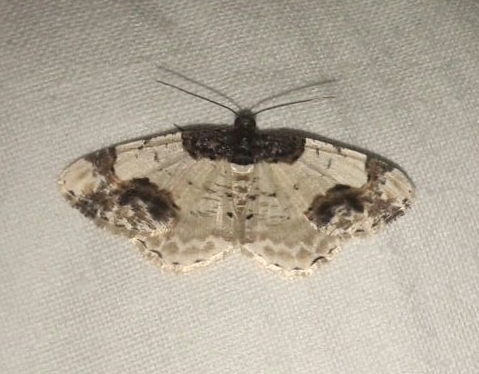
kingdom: Animalia
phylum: Arthropoda
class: Insecta
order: Lepidoptera
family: Geometridae
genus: Ligdia
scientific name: Ligdia adustata
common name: Scorched carpet
